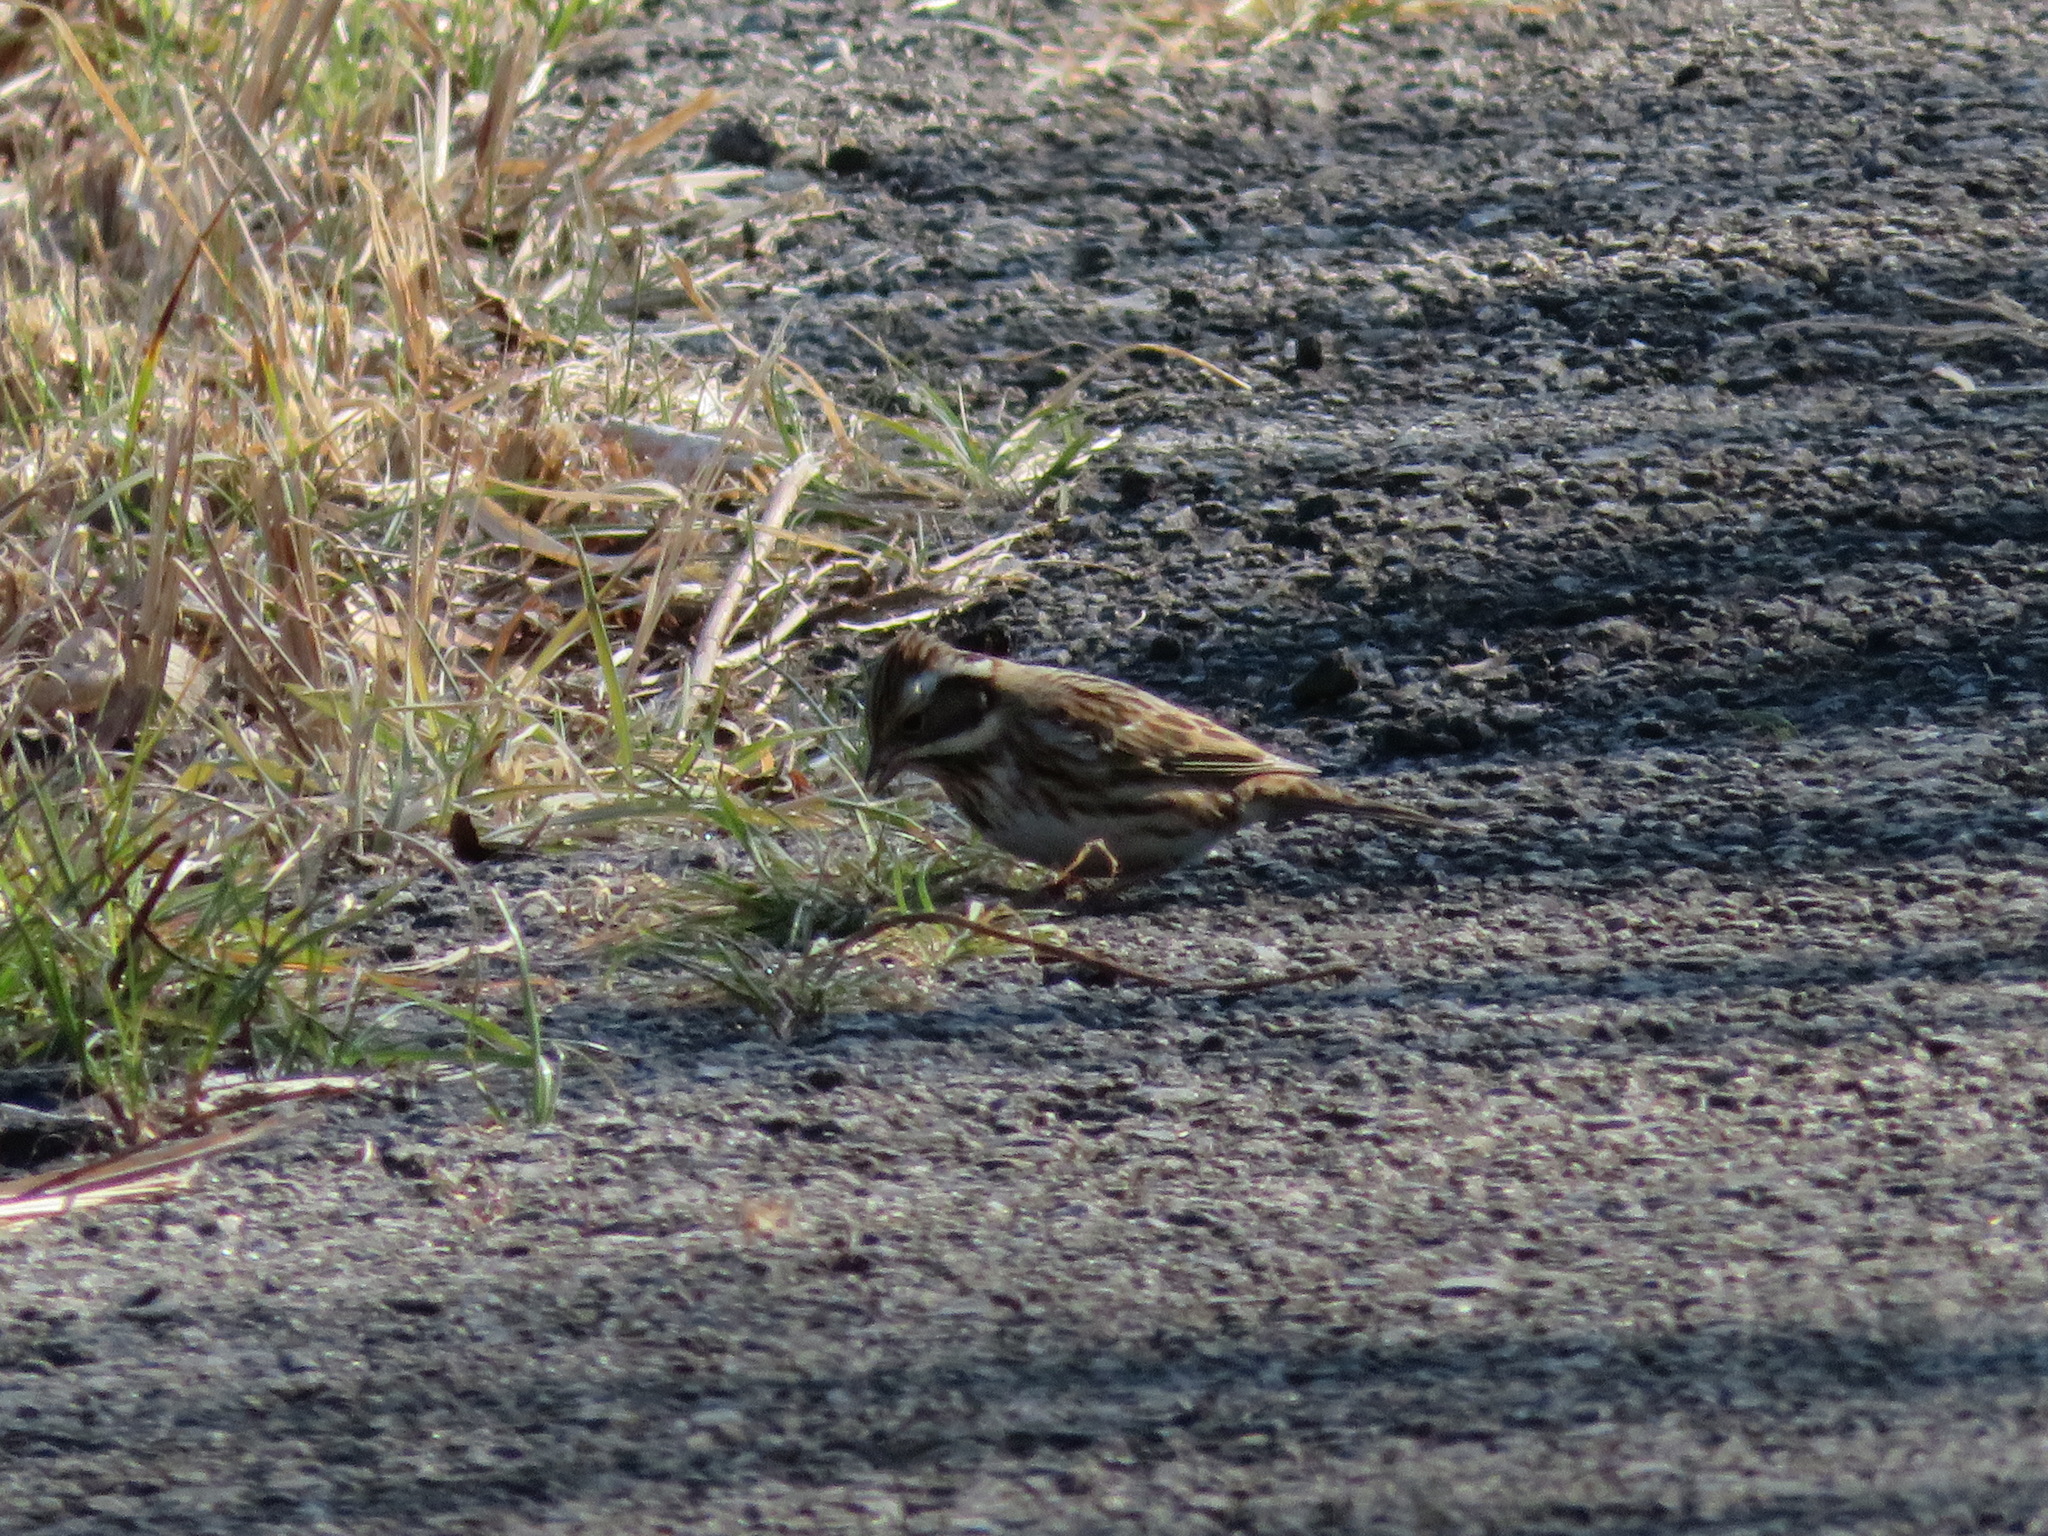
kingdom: Animalia
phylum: Chordata
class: Aves
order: Passeriformes
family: Emberizidae
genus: Emberiza
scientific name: Emberiza rustica
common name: Rustic bunting
